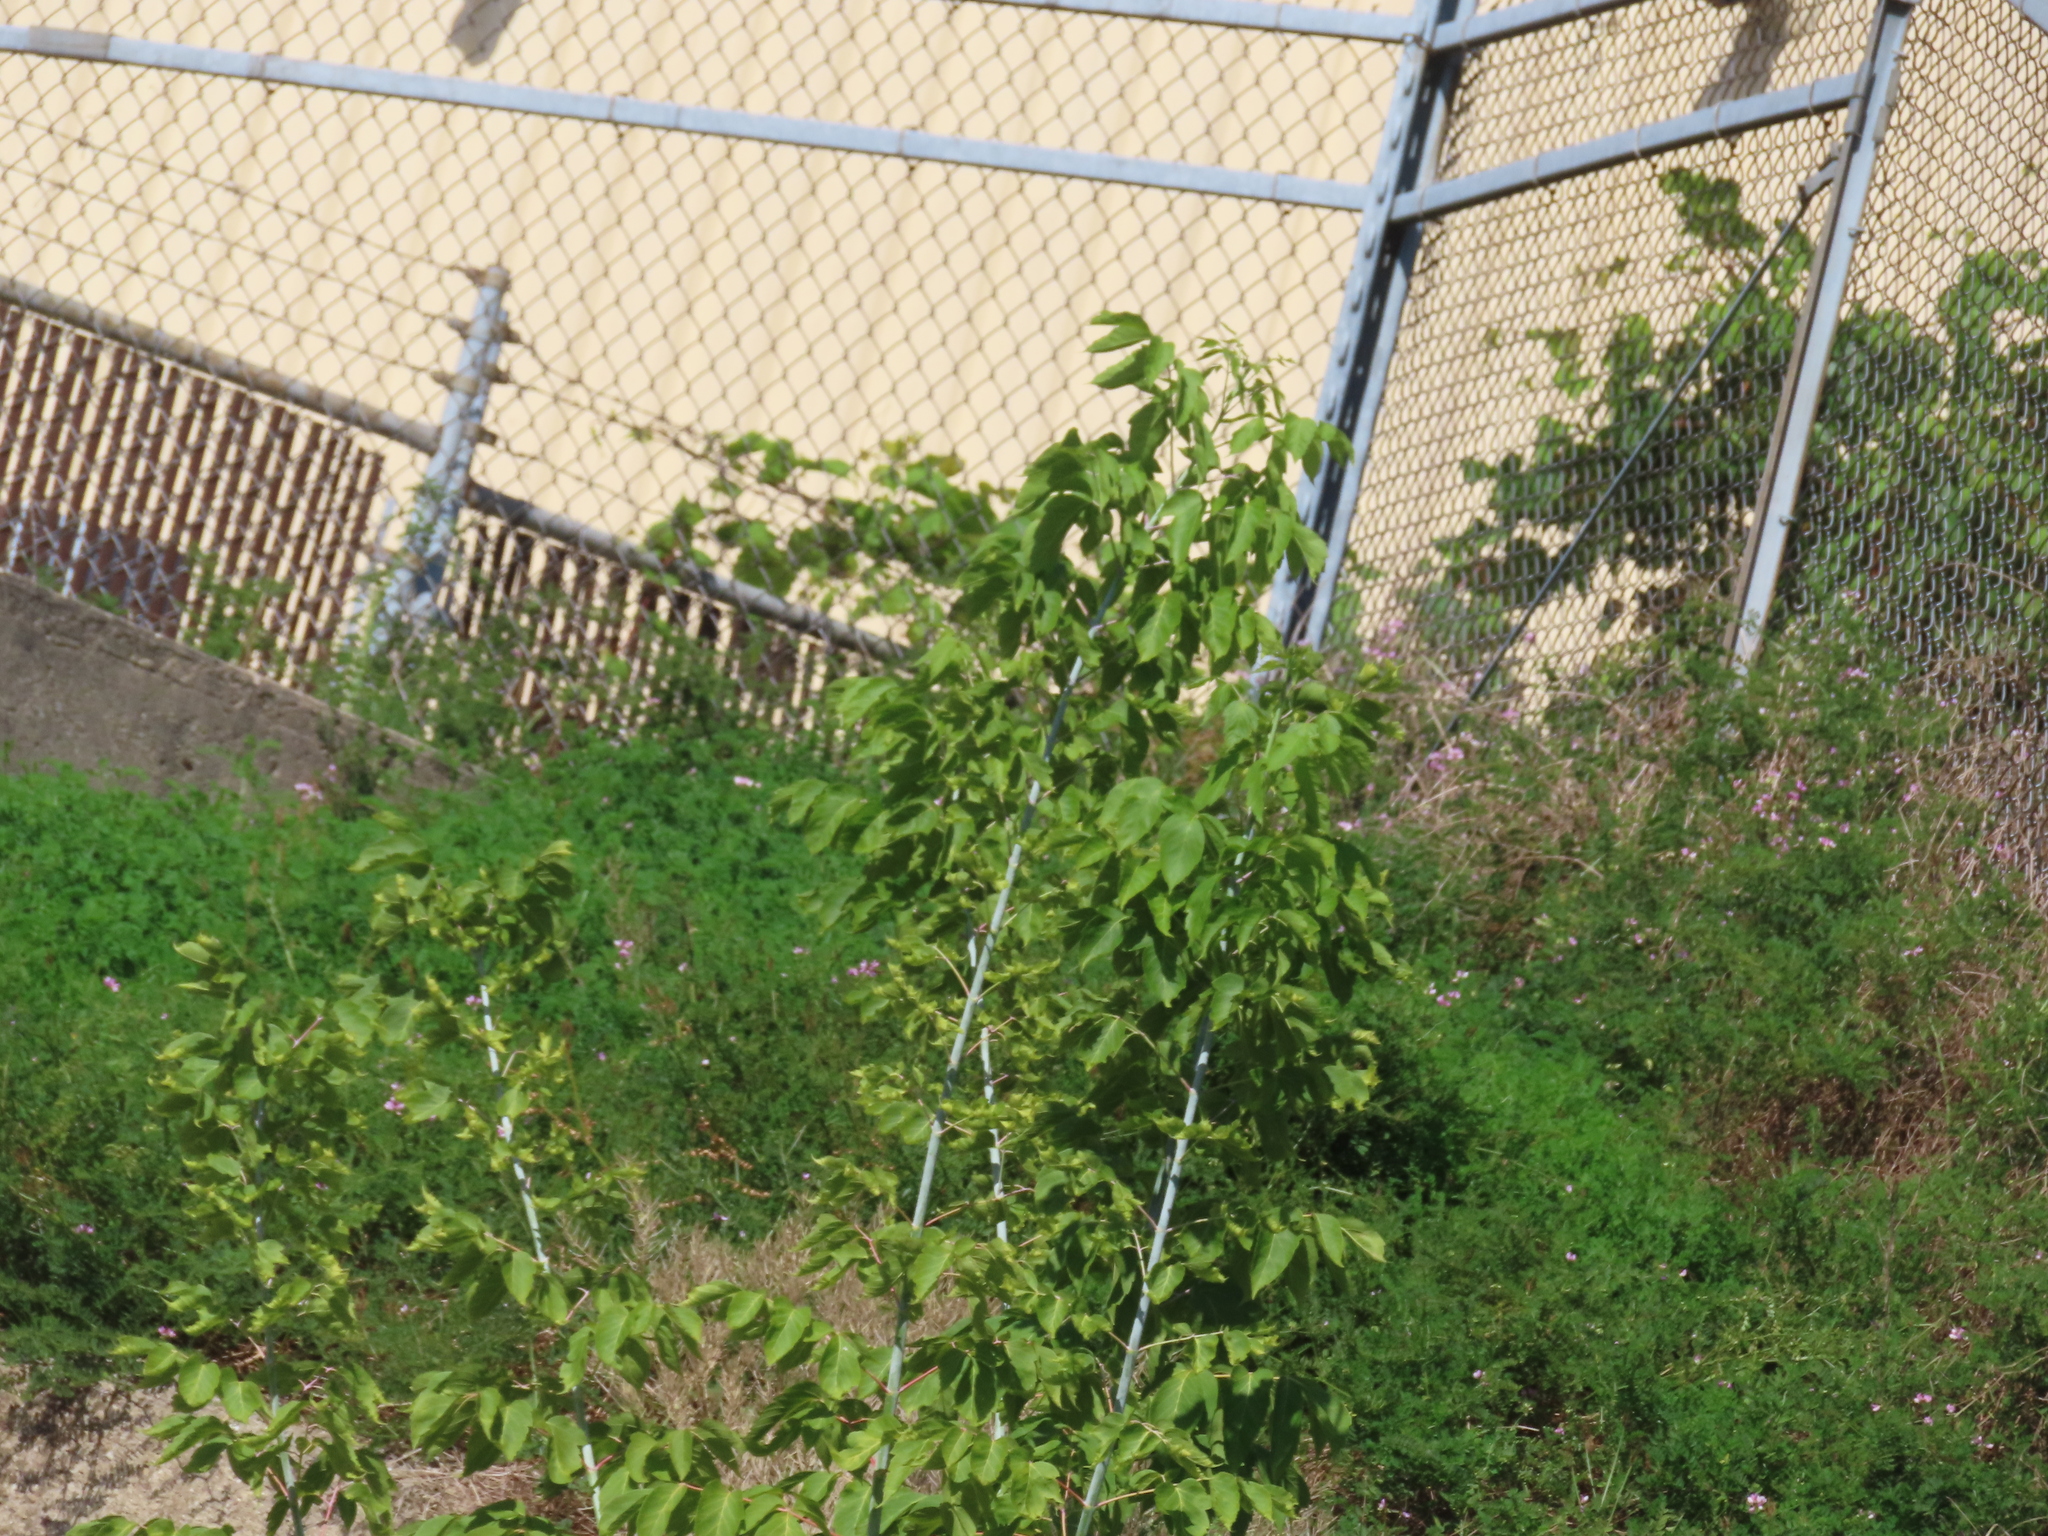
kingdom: Plantae
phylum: Tracheophyta
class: Magnoliopsida
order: Sapindales
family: Sapindaceae
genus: Acer
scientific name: Acer negundo
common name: Ashleaf maple
